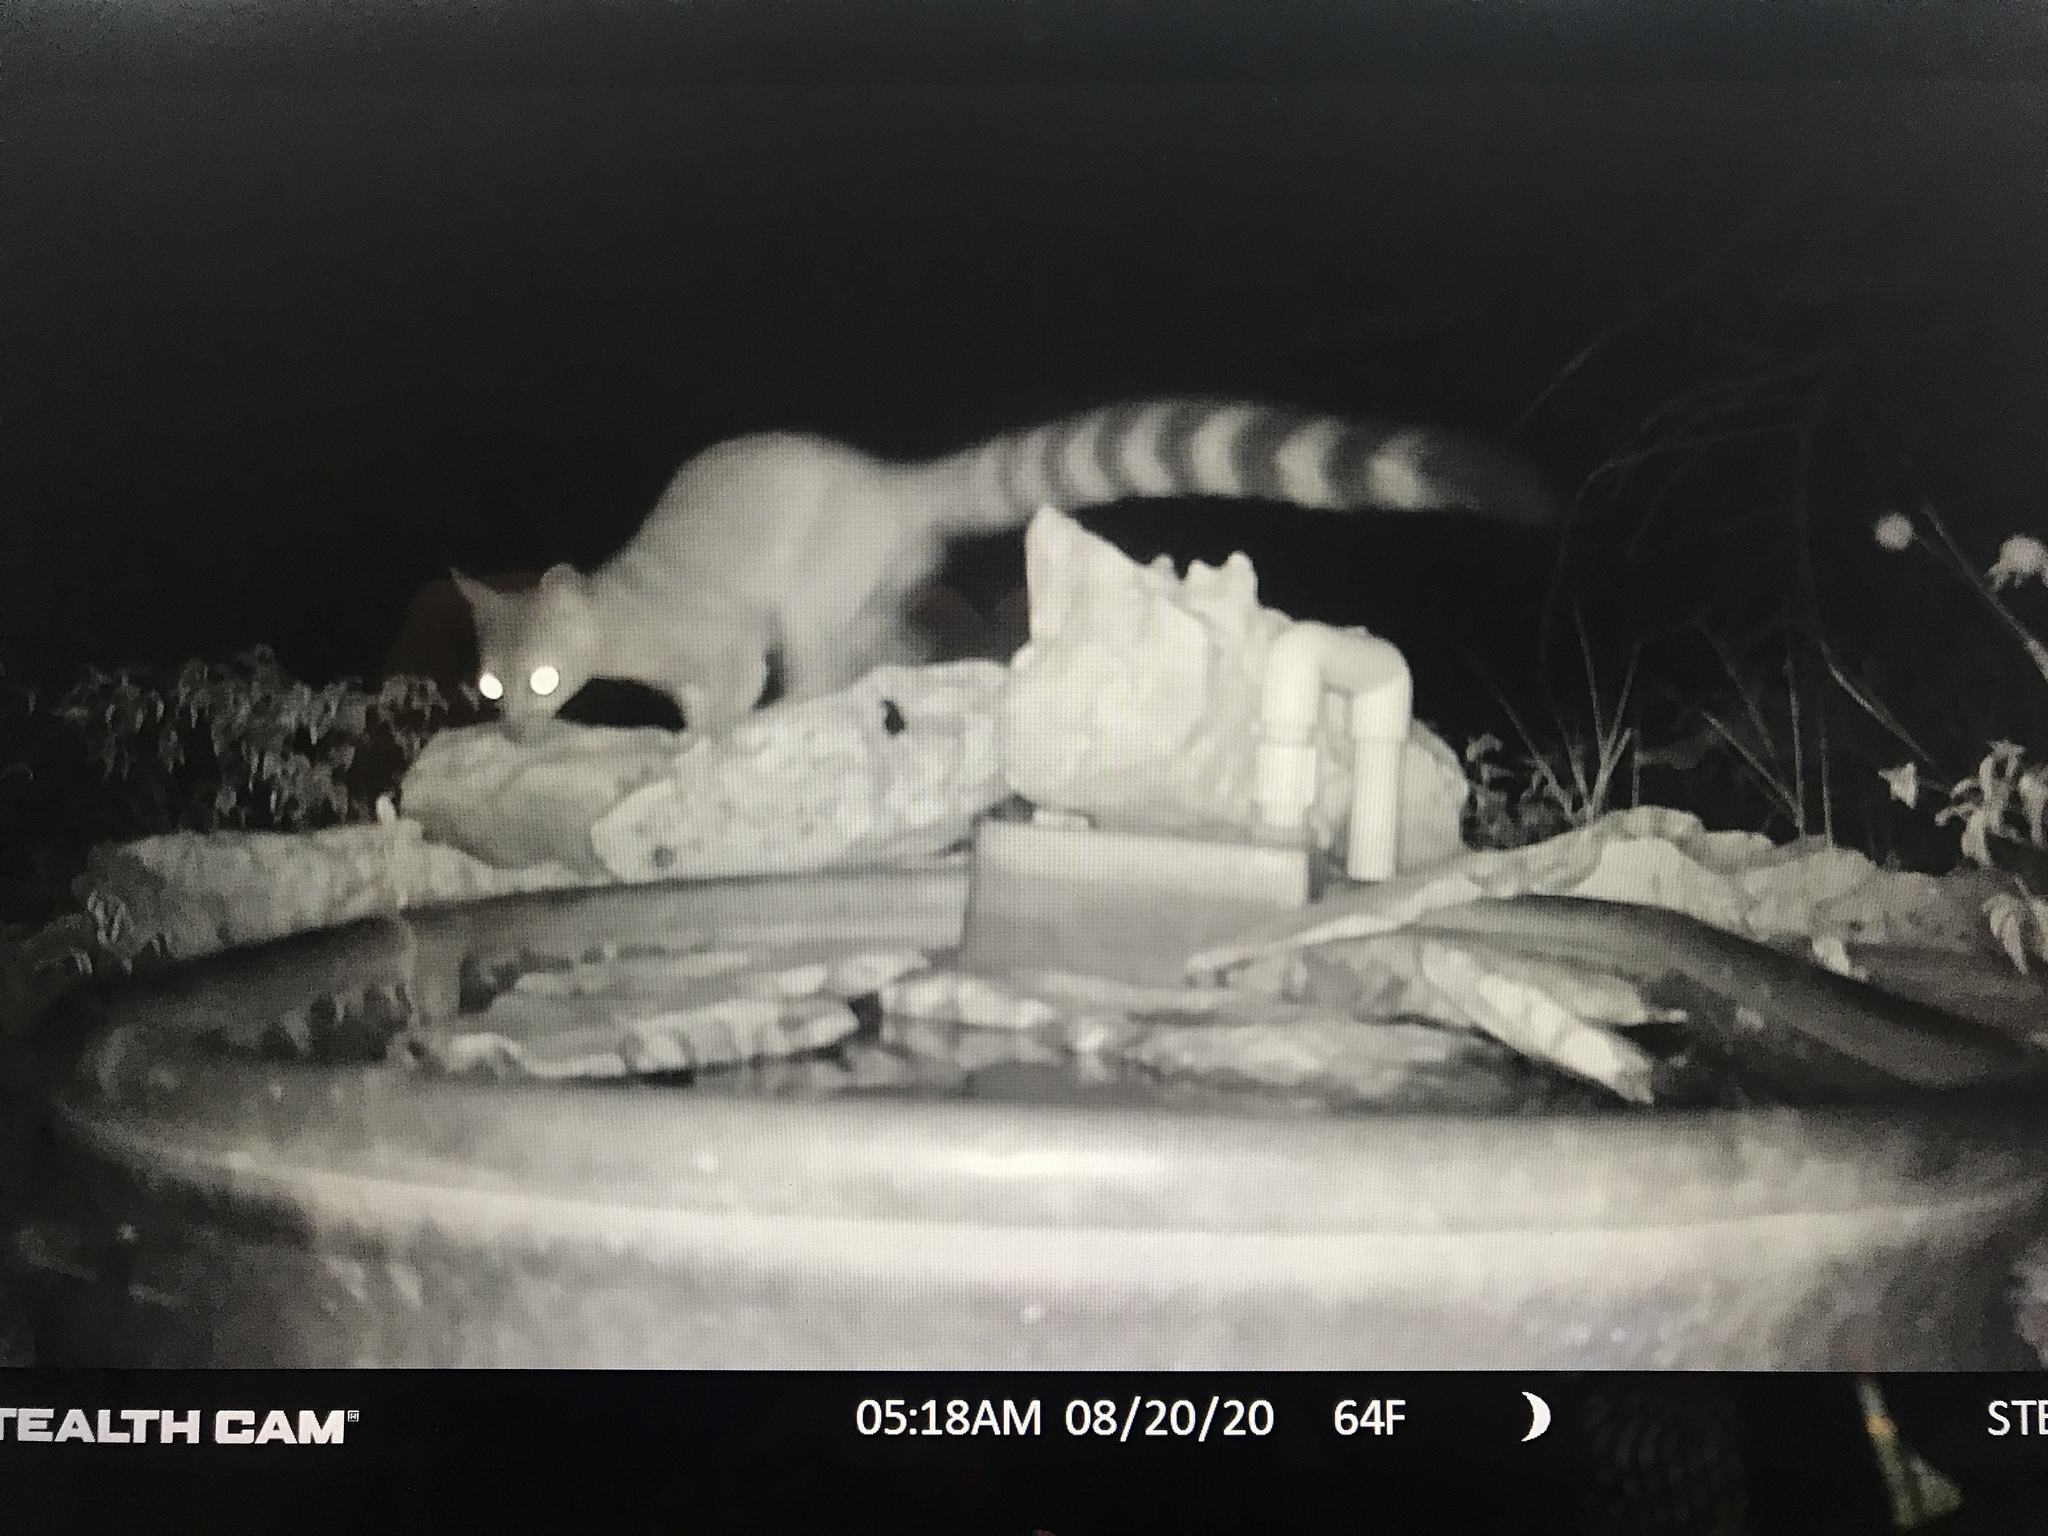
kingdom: Animalia
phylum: Chordata
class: Mammalia
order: Carnivora
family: Procyonidae
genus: Bassariscus
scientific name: Bassariscus astutus
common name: Ringtail
